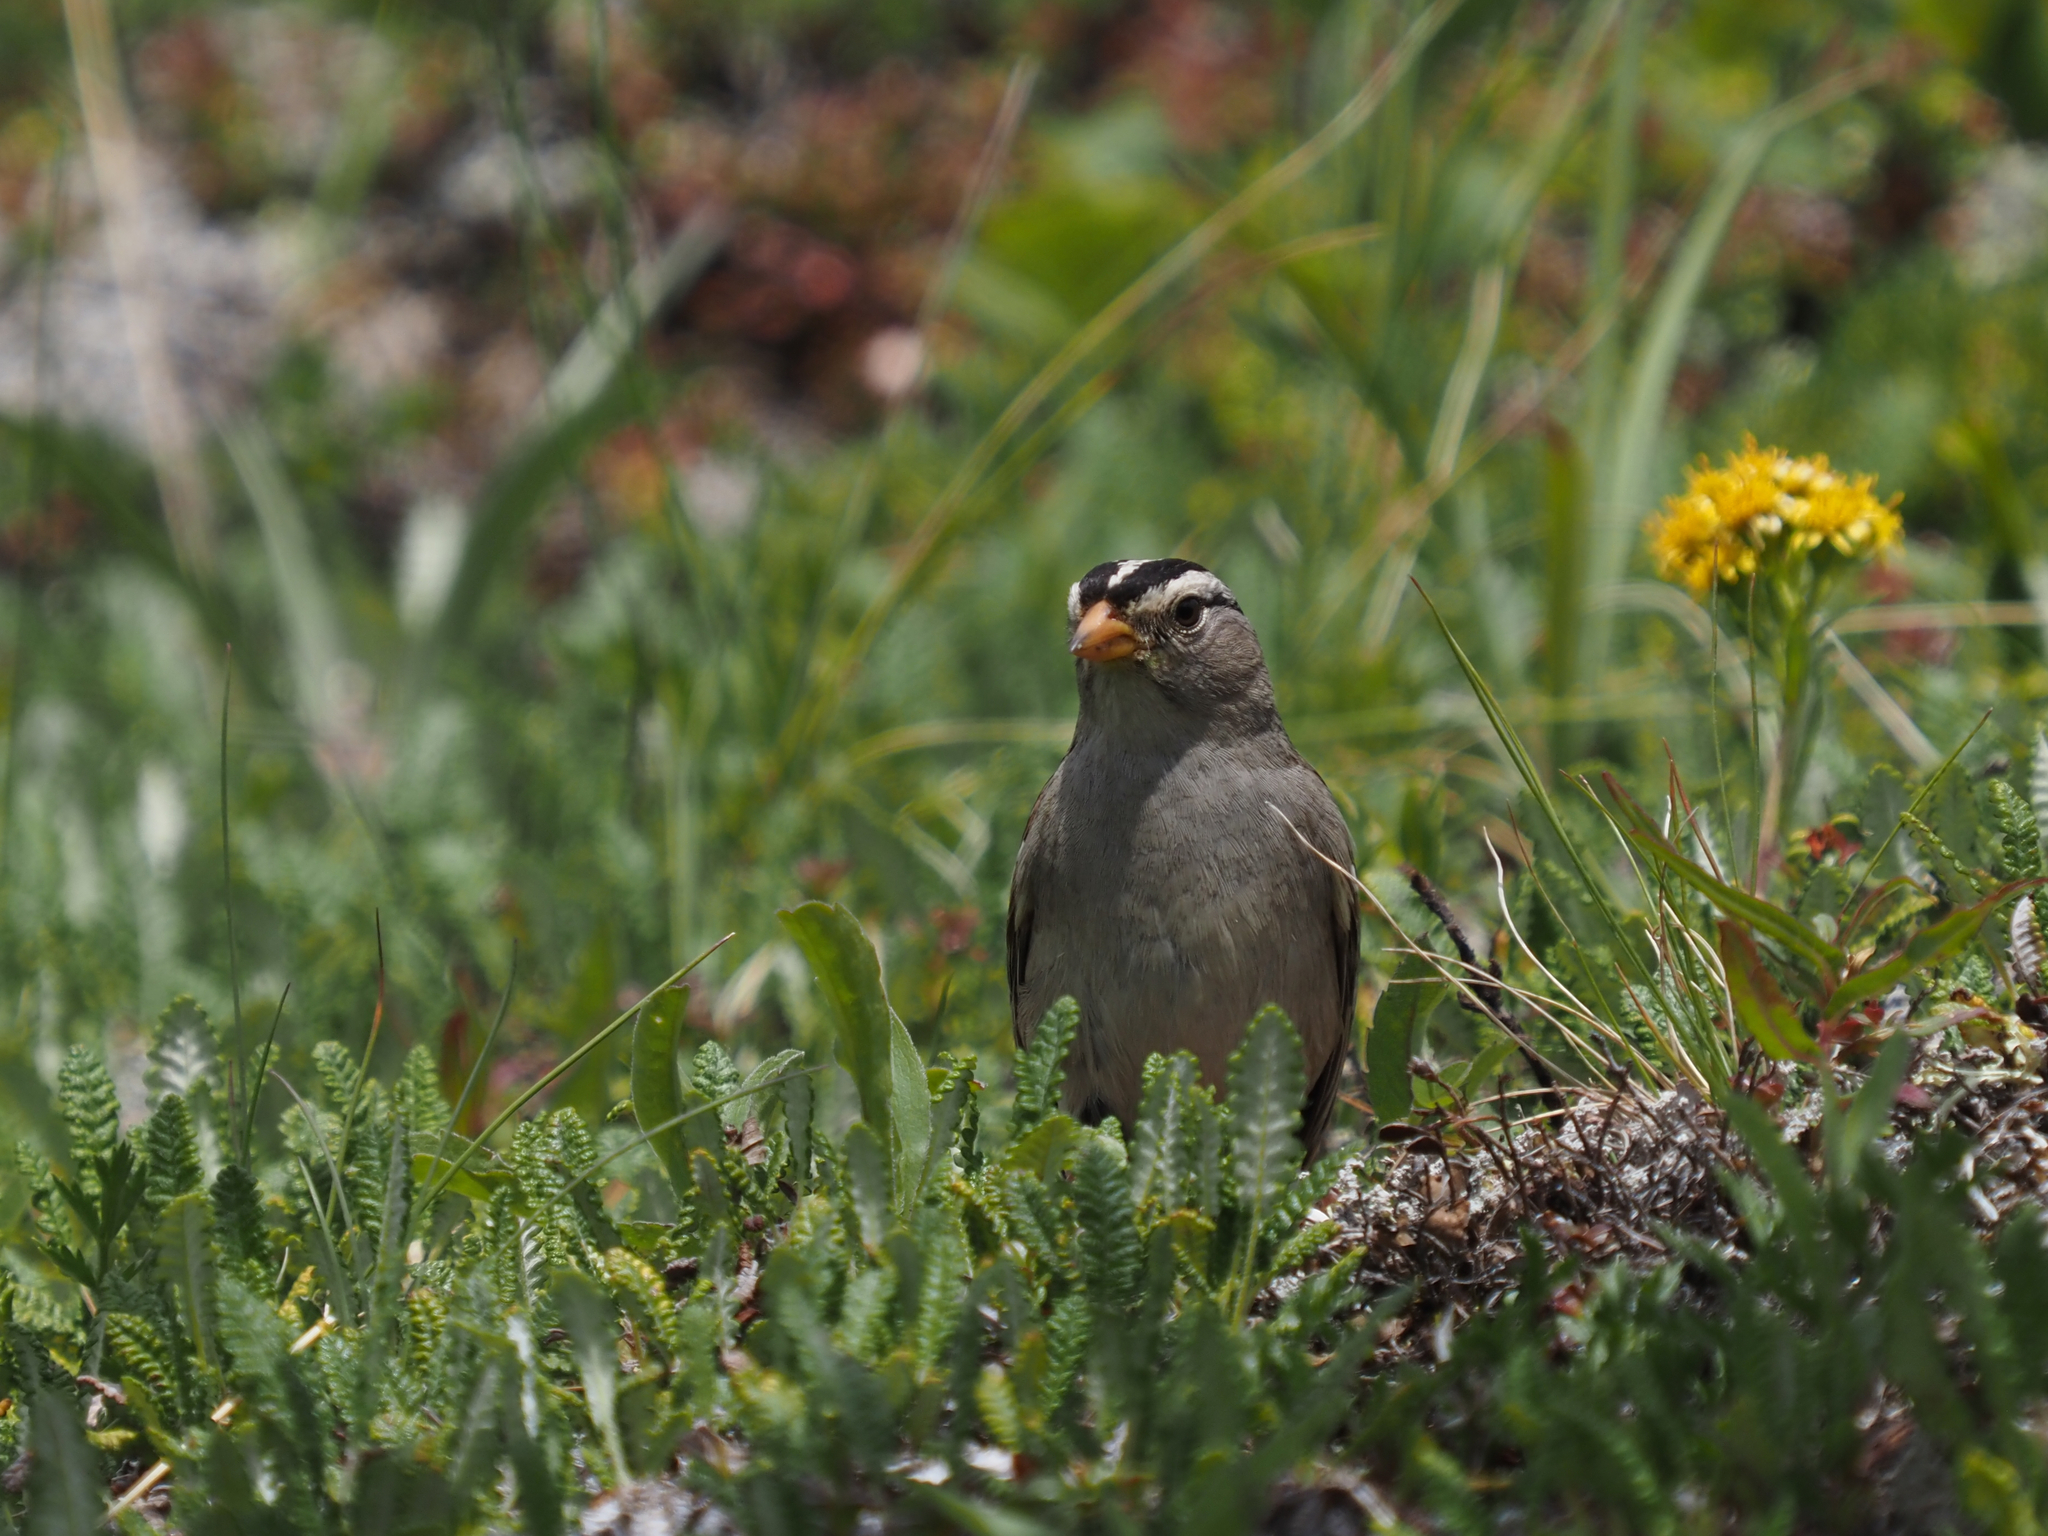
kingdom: Animalia
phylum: Chordata
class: Aves
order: Passeriformes
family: Passerellidae
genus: Zonotrichia
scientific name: Zonotrichia leucophrys
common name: White-crowned sparrow
